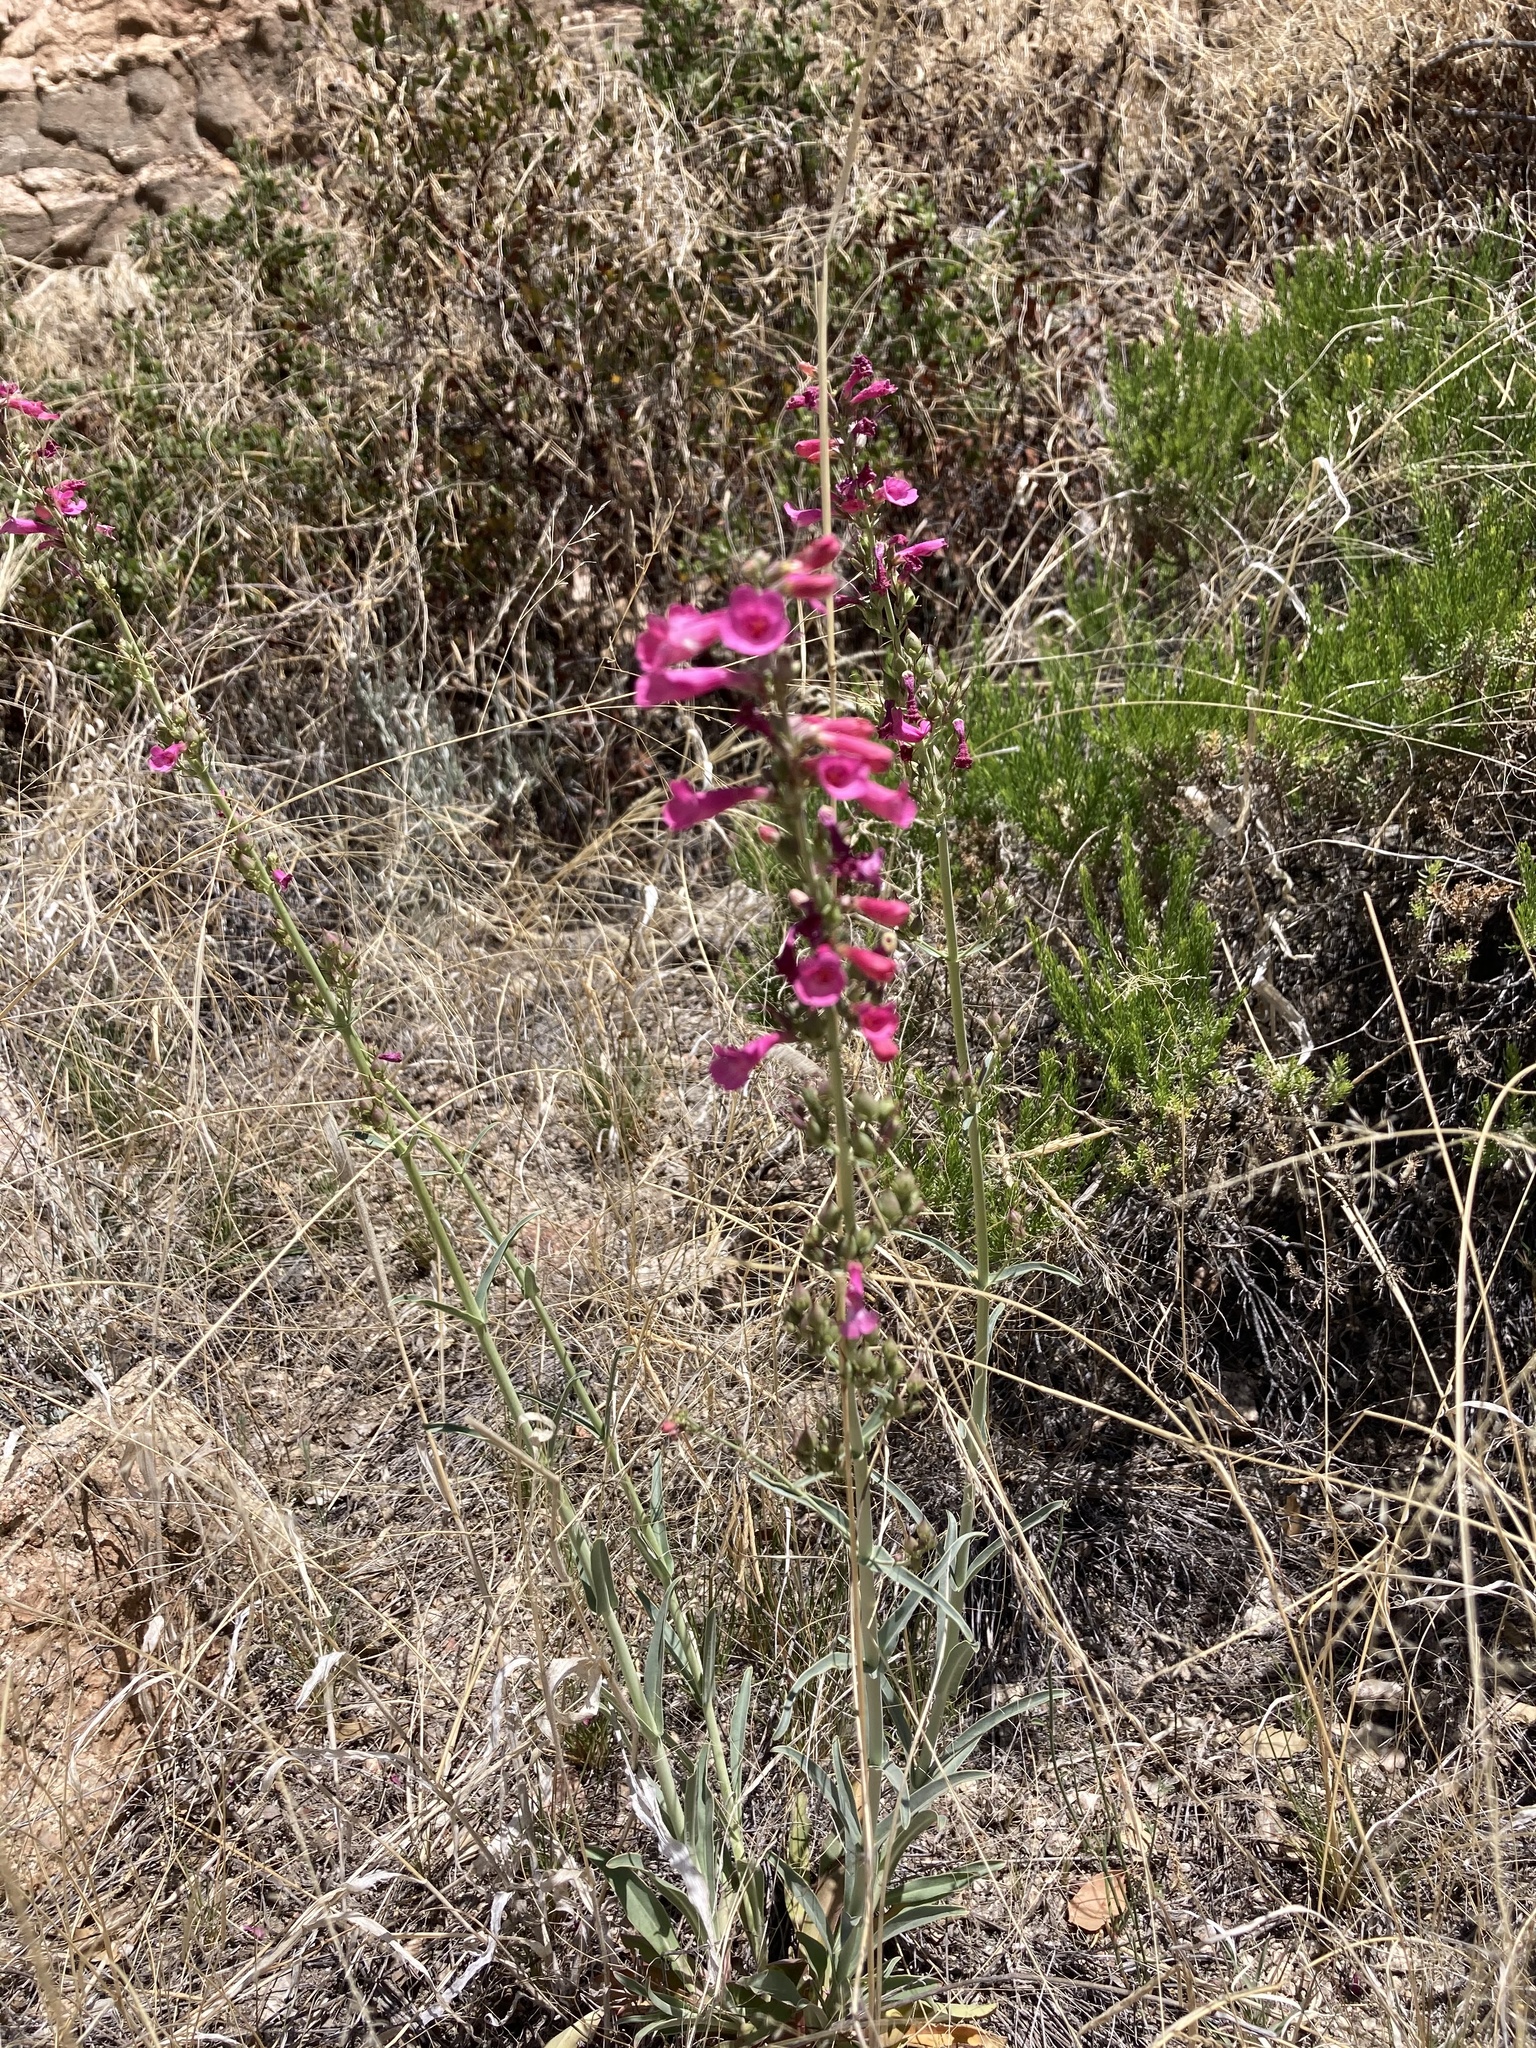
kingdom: Plantae
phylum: Tracheophyta
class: Magnoliopsida
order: Lamiales
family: Plantaginaceae
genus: Penstemon
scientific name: Penstemon parryi
